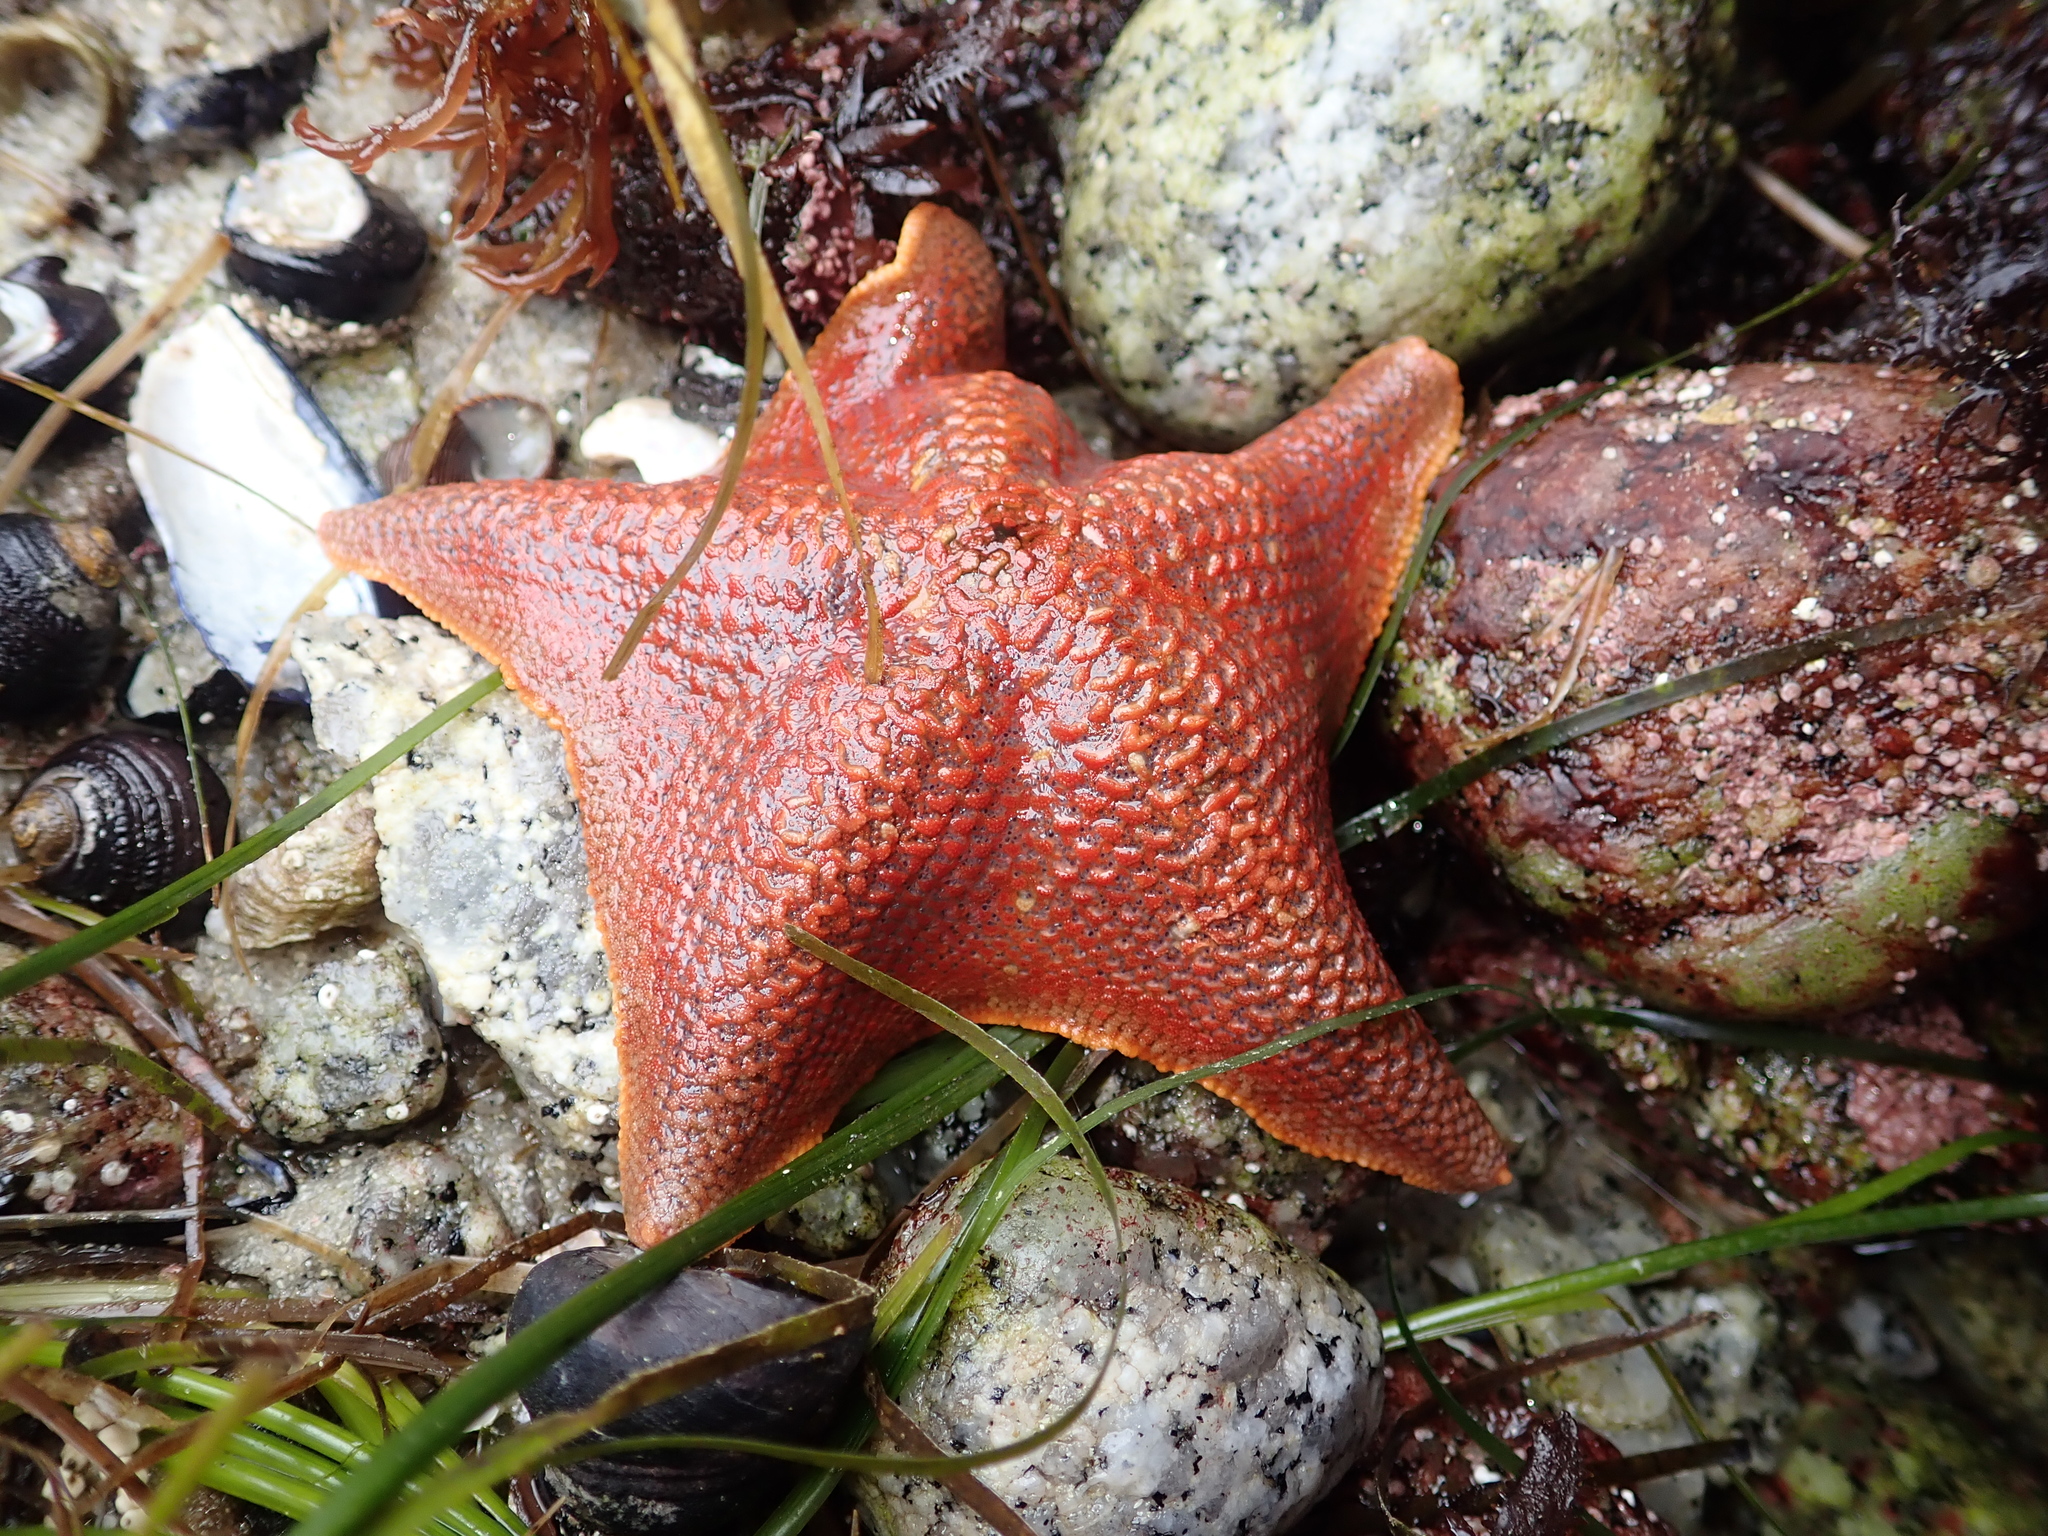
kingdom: Animalia
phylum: Echinodermata
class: Asteroidea
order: Valvatida
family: Asterinidae
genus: Patiria
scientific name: Patiria miniata
